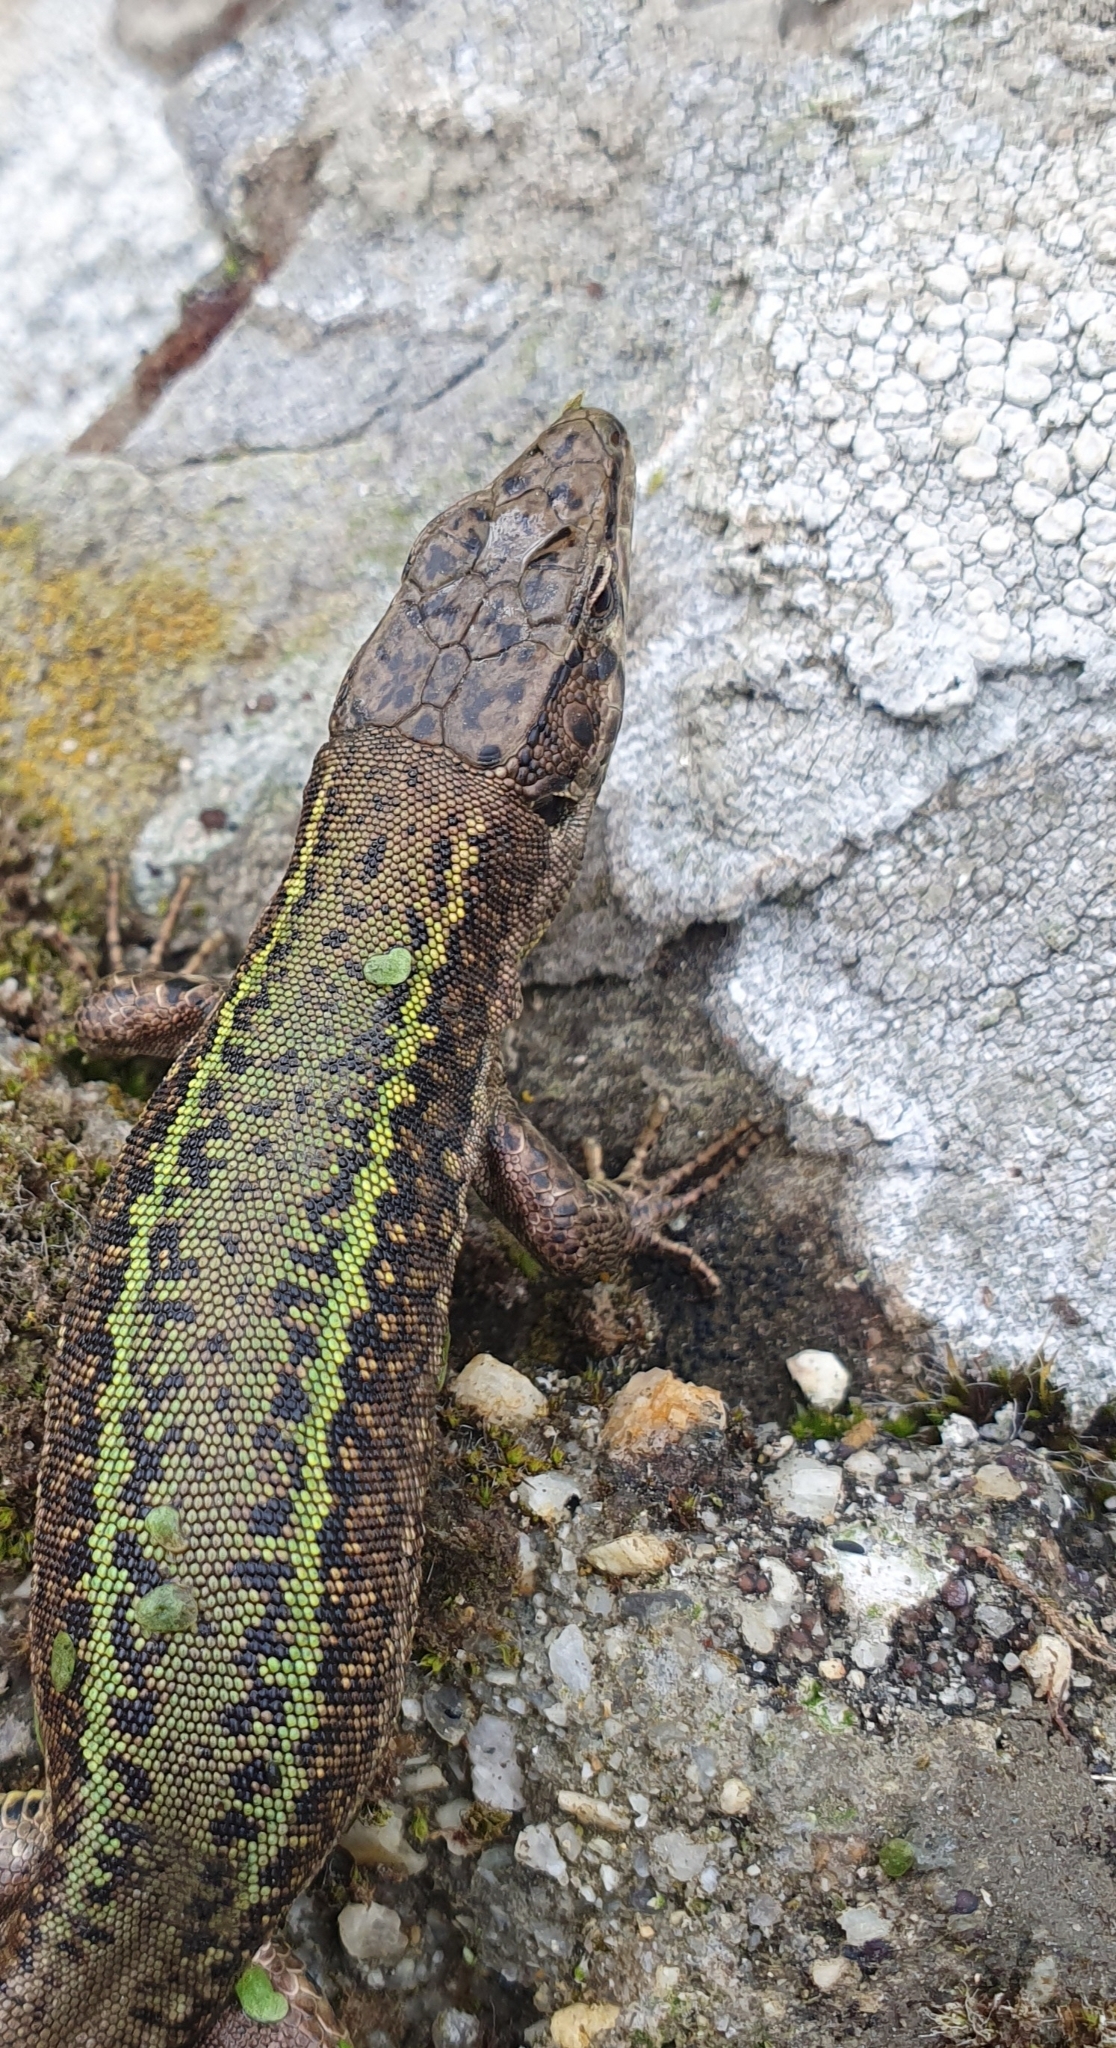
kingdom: Animalia
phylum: Chordata
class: Squamata
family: Lacertidae
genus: Podarcis
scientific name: Podarcis bocagei
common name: Bocage's wall lizard
